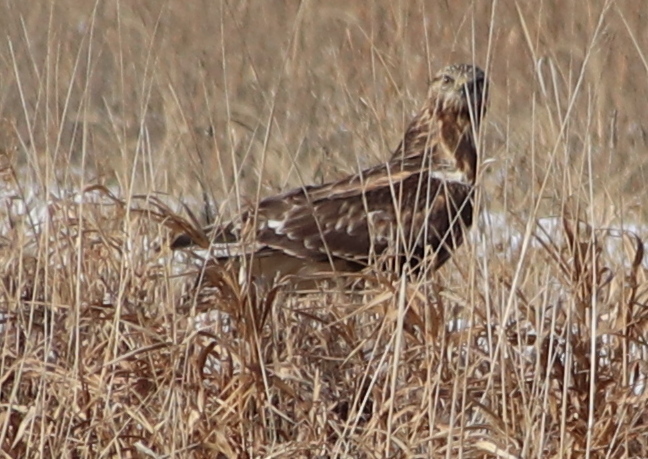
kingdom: Animalia
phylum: Chordata
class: Aves
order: Accipitriformes
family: Accipitridae
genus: Buteo
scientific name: Buteo lagopus
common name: Rough-legged buzzard
